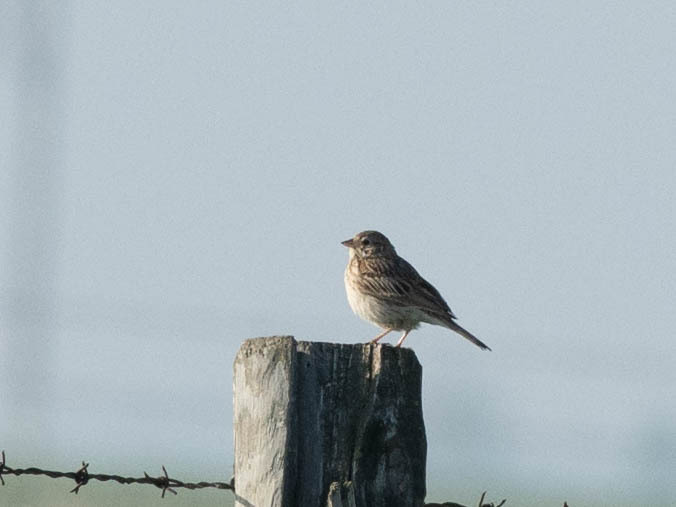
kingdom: Animalia
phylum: Chordata
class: Aves
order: Passeriformes
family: Passerellidae
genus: Pooecetes
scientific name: Pooecetes gramineus
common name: Vesper sparrow
